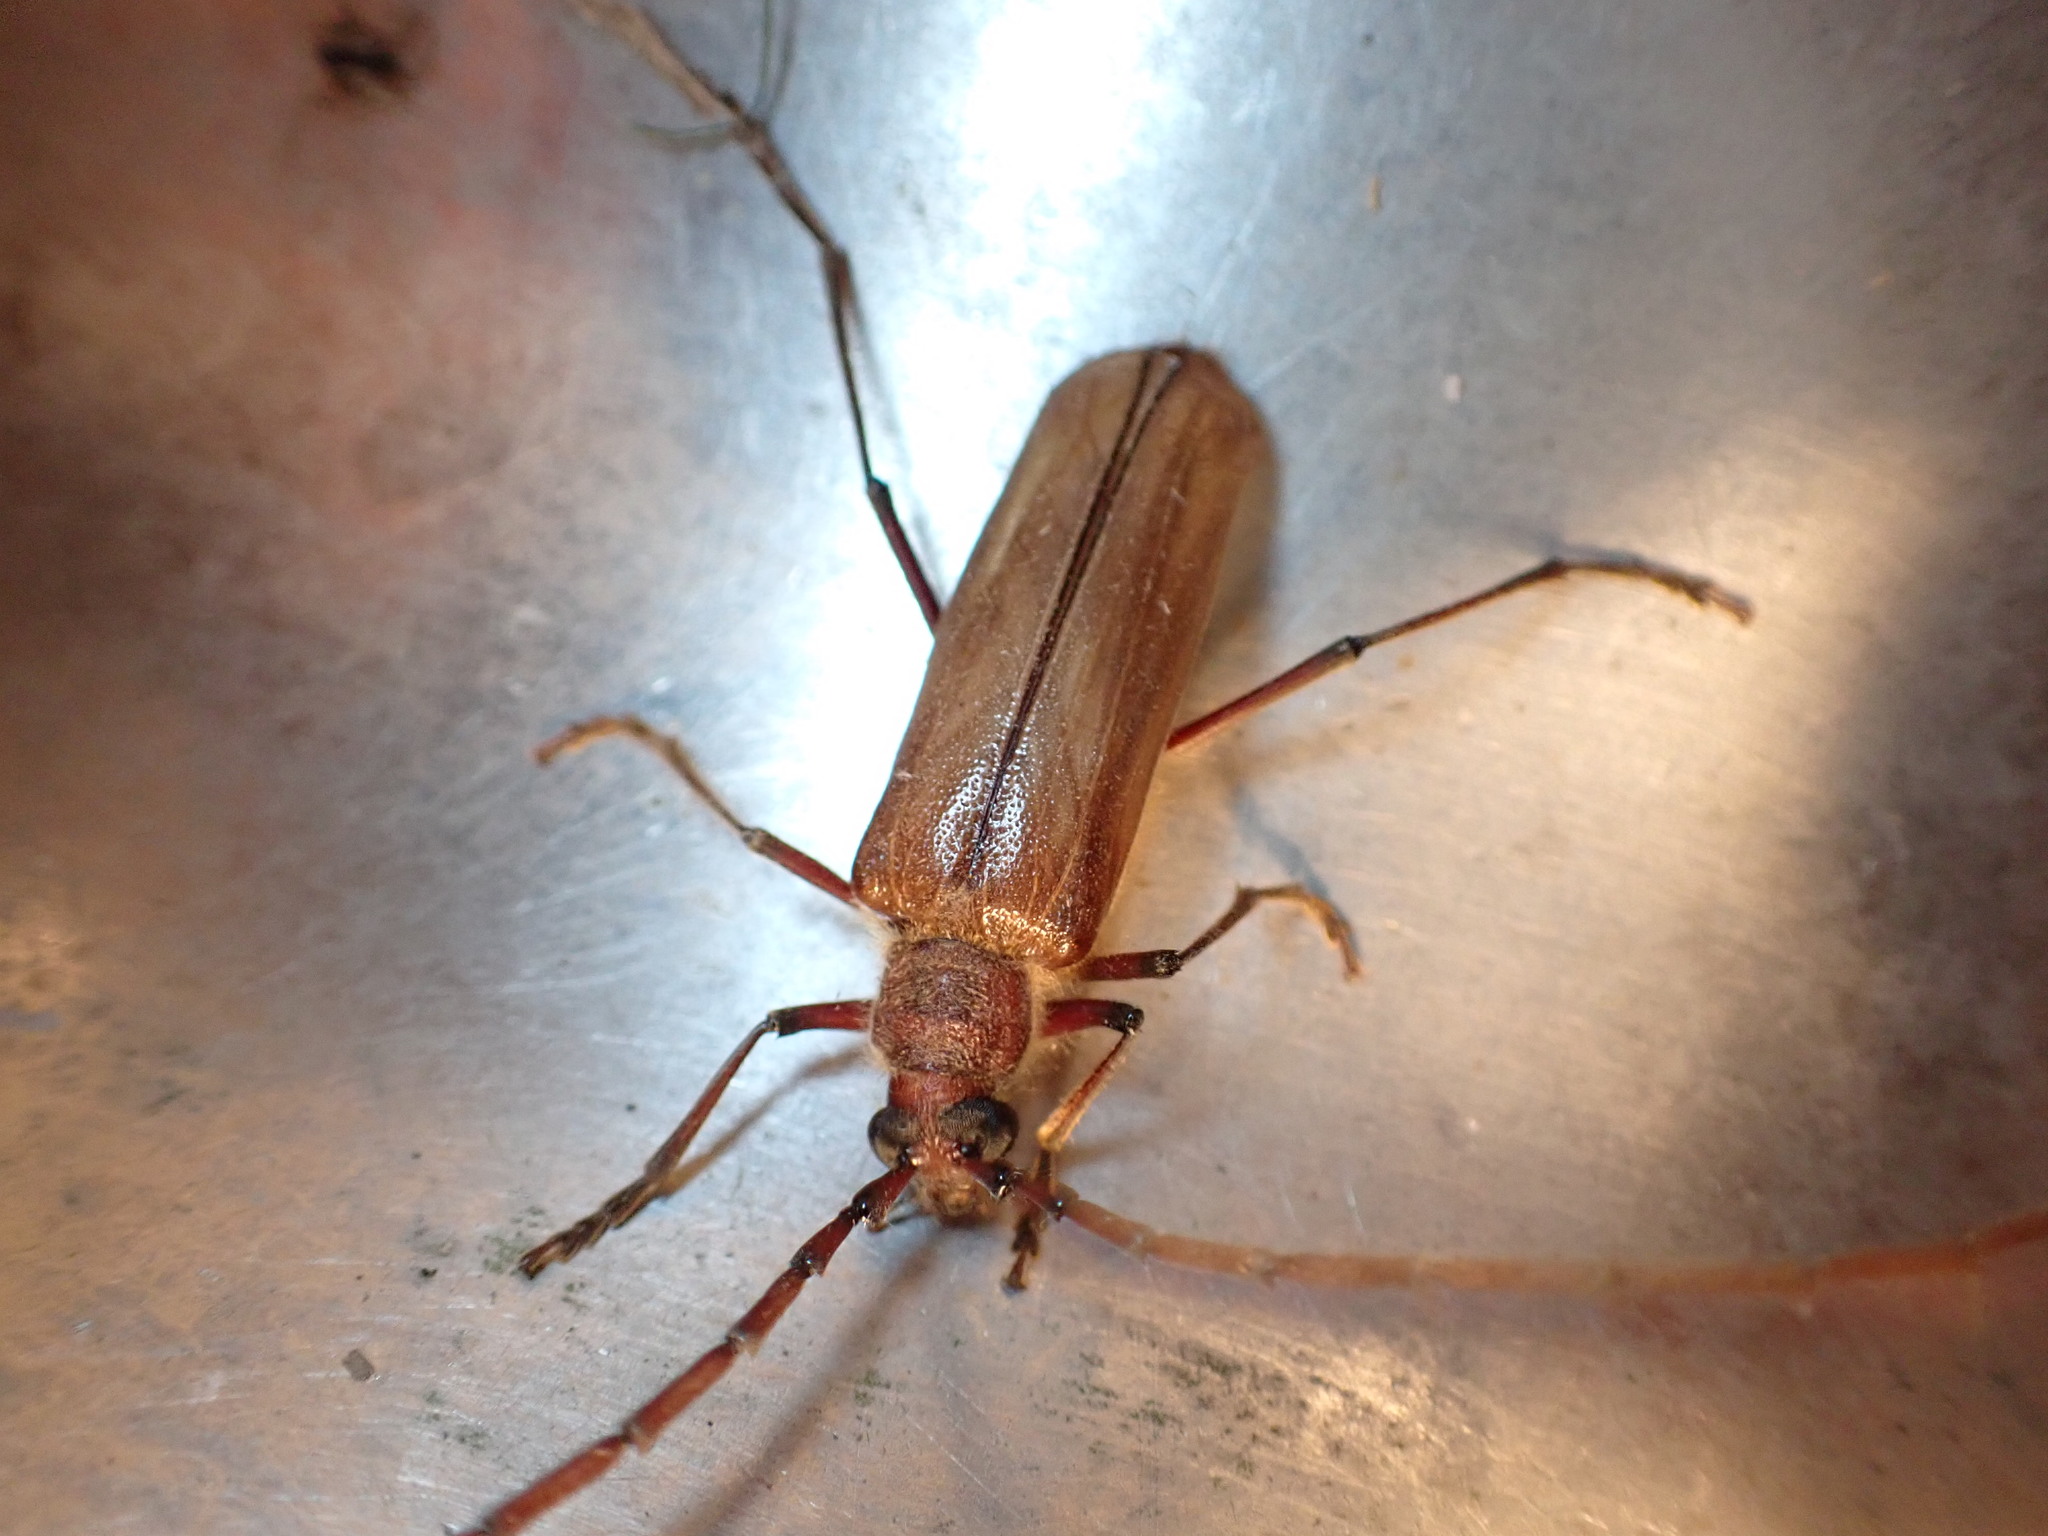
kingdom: Animalia
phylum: Arthropoda
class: Insecta
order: Coleoptera
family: Cerambycidae
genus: Ochrocydus
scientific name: Ochrocydus huttoni
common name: Kanuka longhorn
